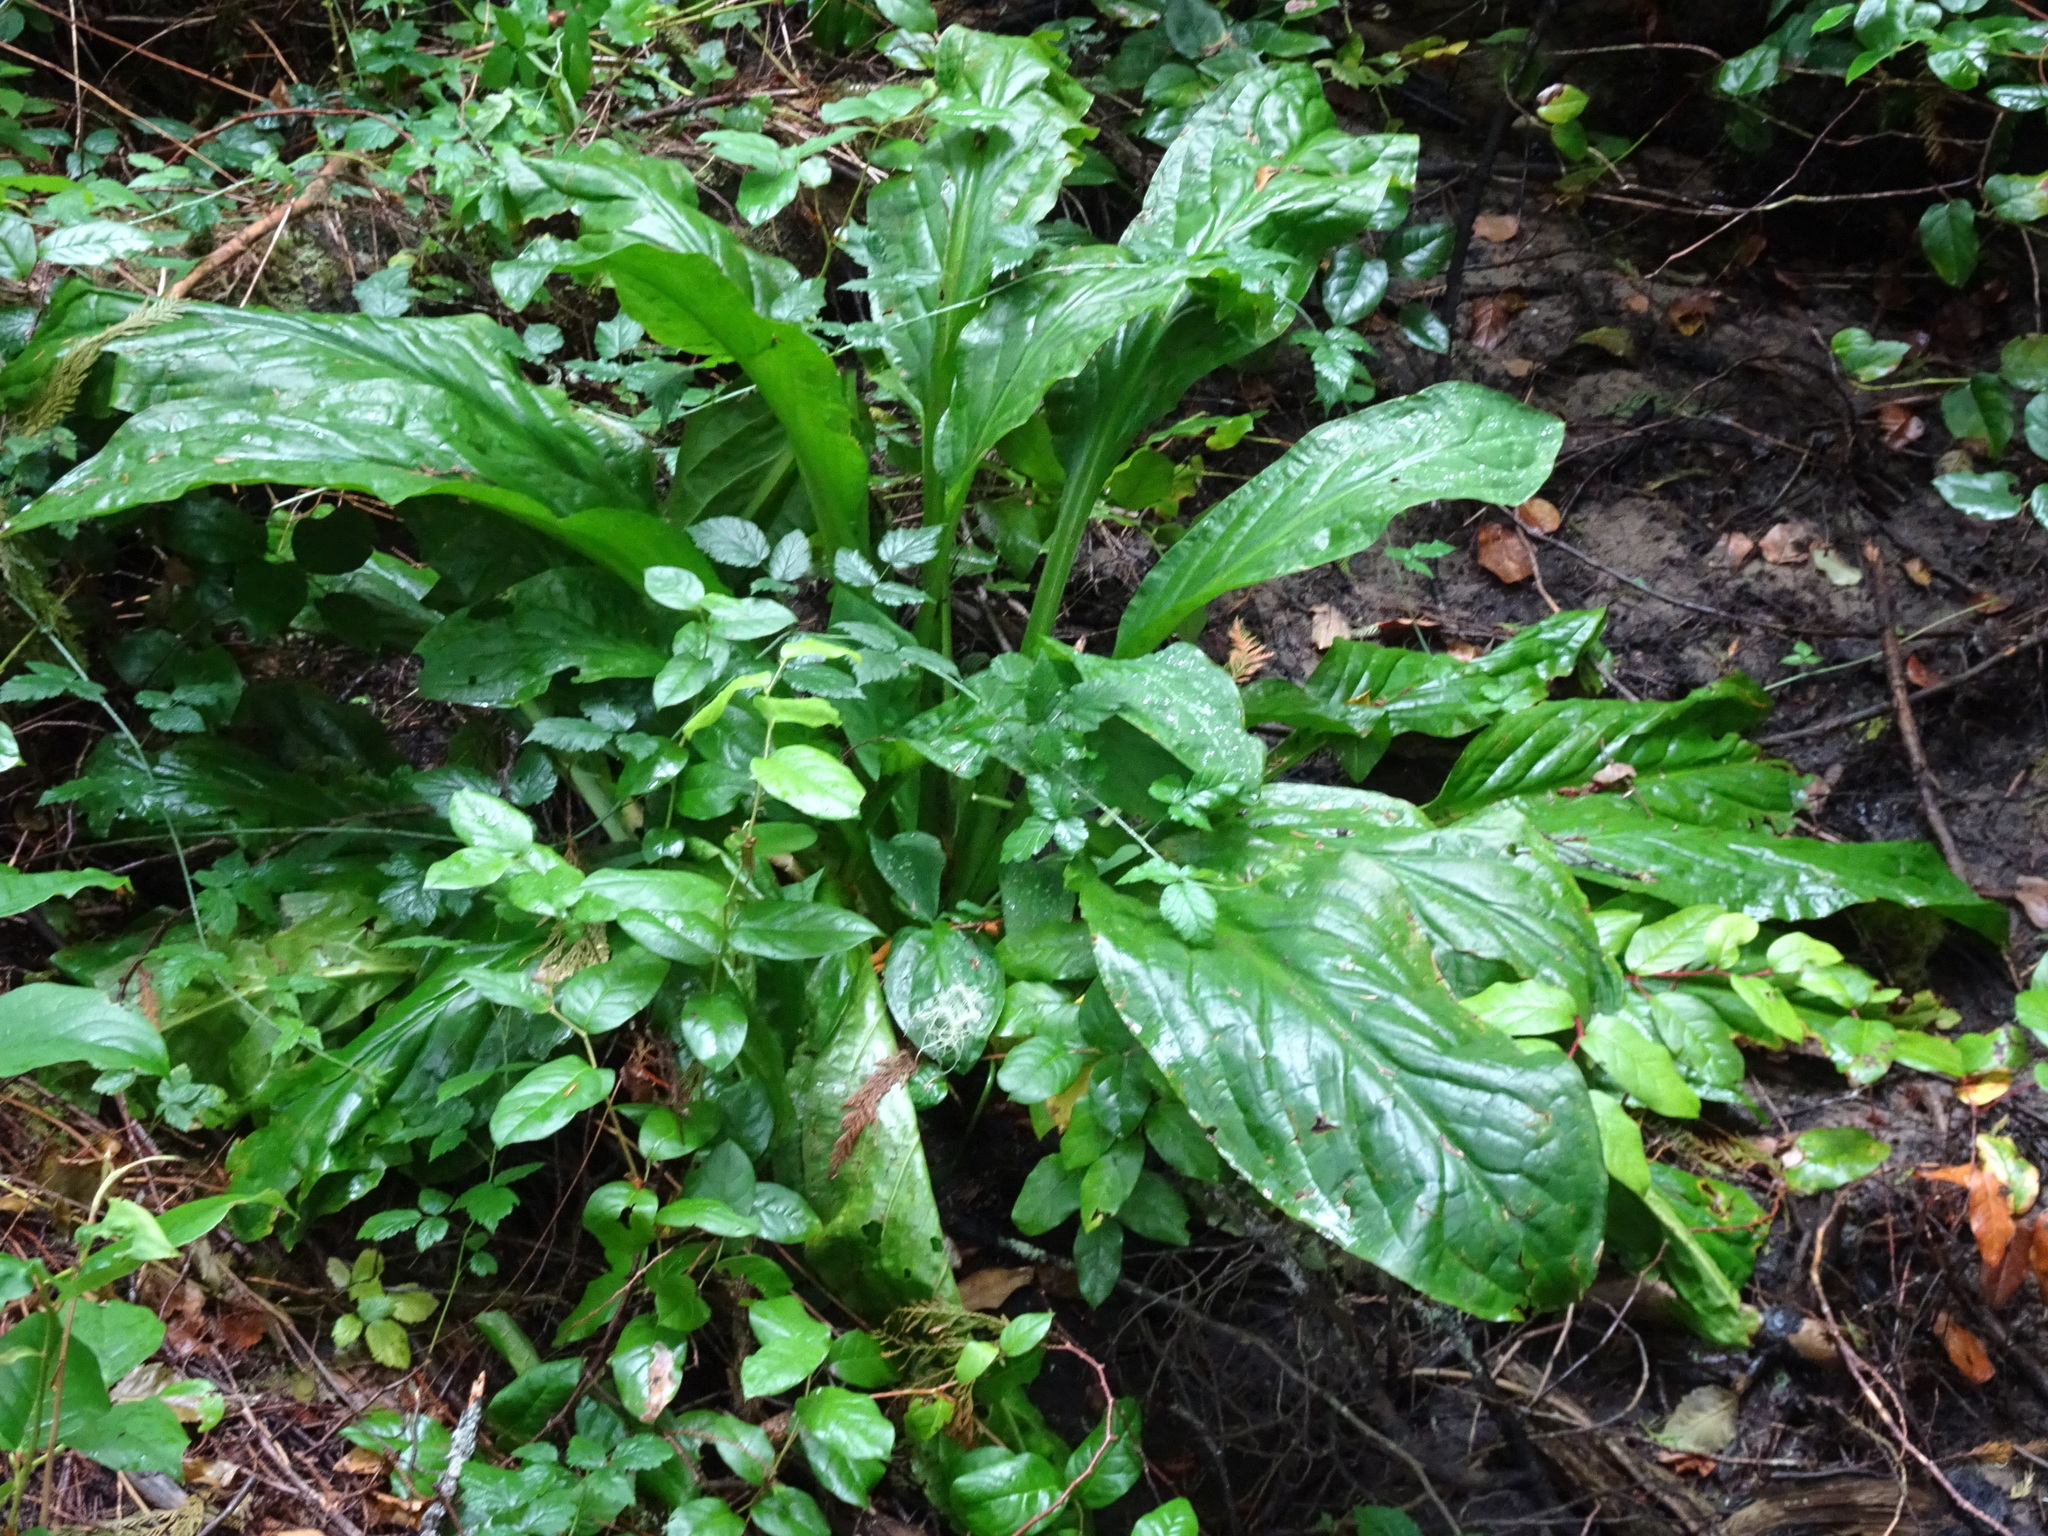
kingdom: Plantae
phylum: Tracheophyta
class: Liliopsida
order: Alismatales
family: Araceae
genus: Lysichiton
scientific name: Lysichiton americanus
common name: American skunk cabbage
